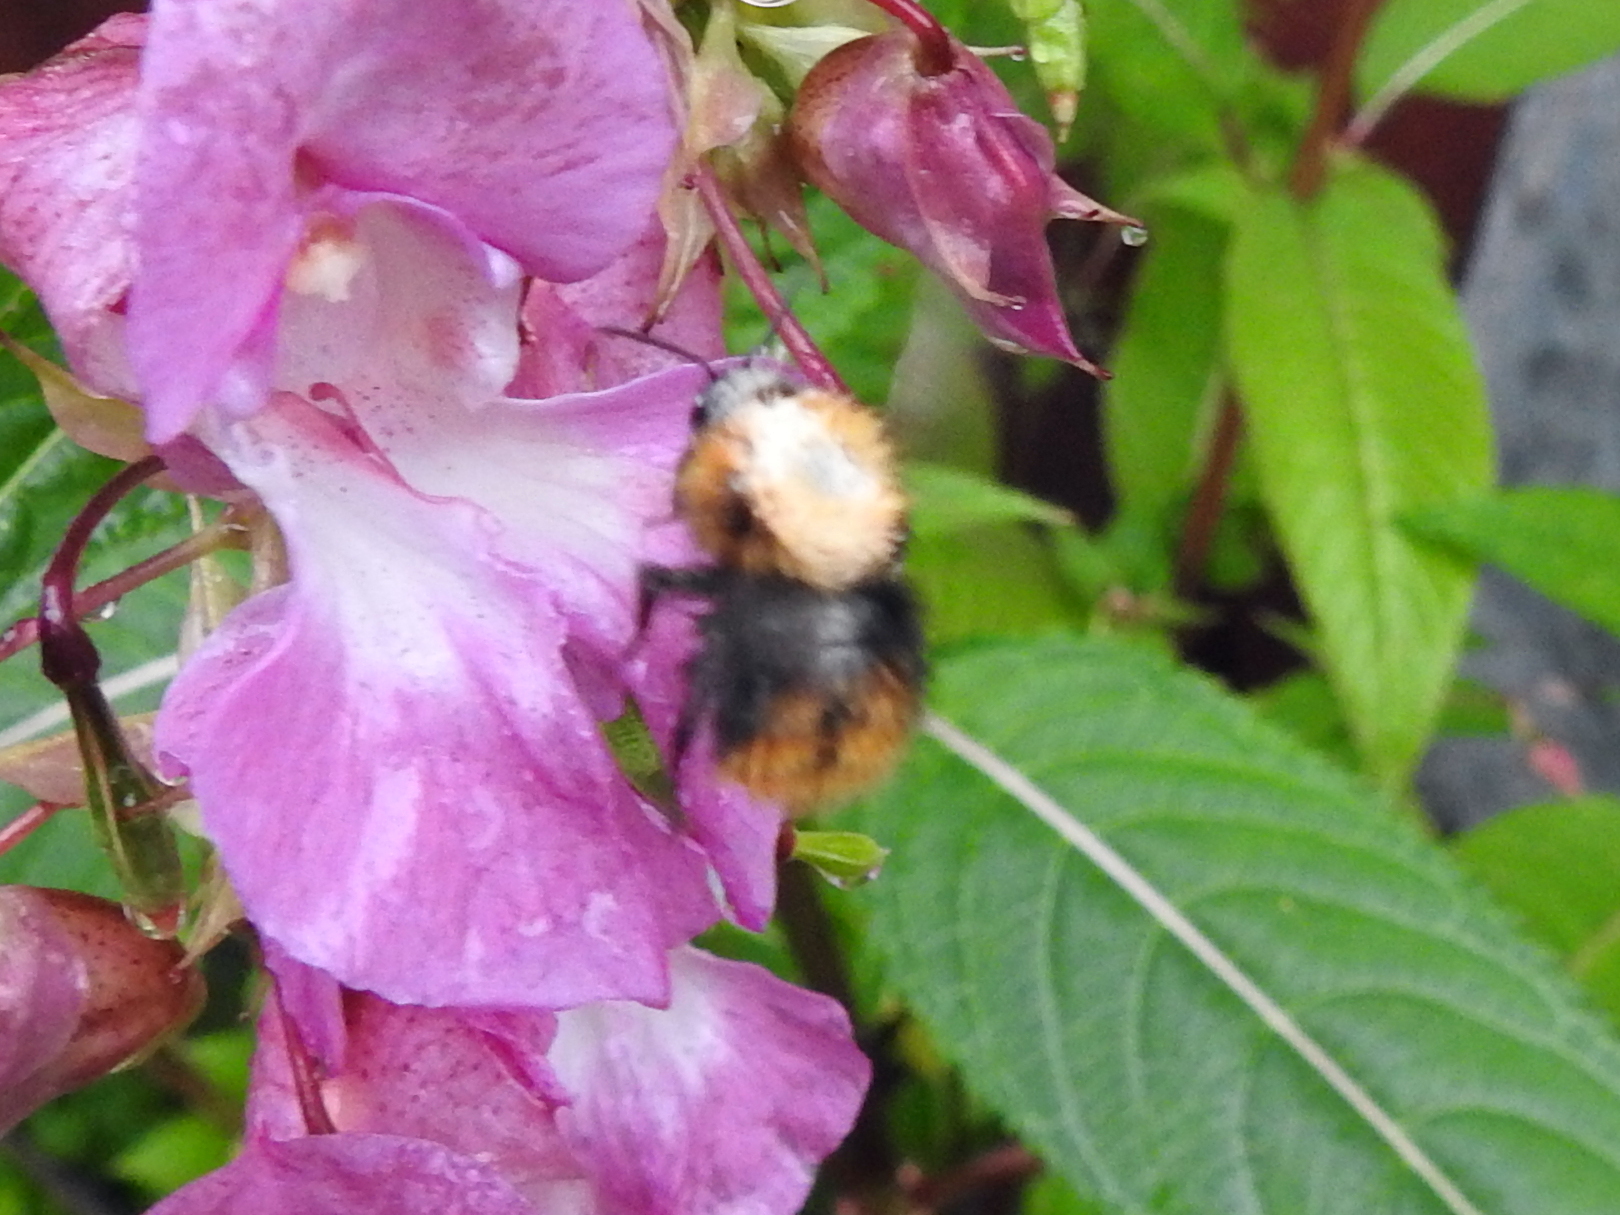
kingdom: Animalia
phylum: Arthropoda
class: Insecta
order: Hymenoptera
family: Apidae
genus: Bombus
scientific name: Bombus pascuorum
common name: Common carder bee
